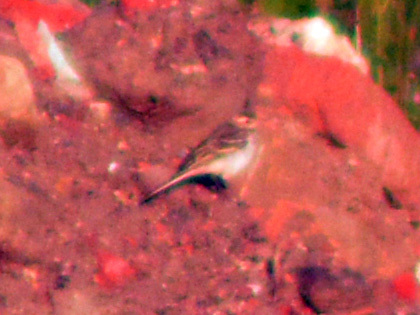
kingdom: Animalia
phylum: Chordata
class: Aves
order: Passeriformes
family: Motacillidae
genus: Motacilla
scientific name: Motacilla flava
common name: Western yellow wagtail
